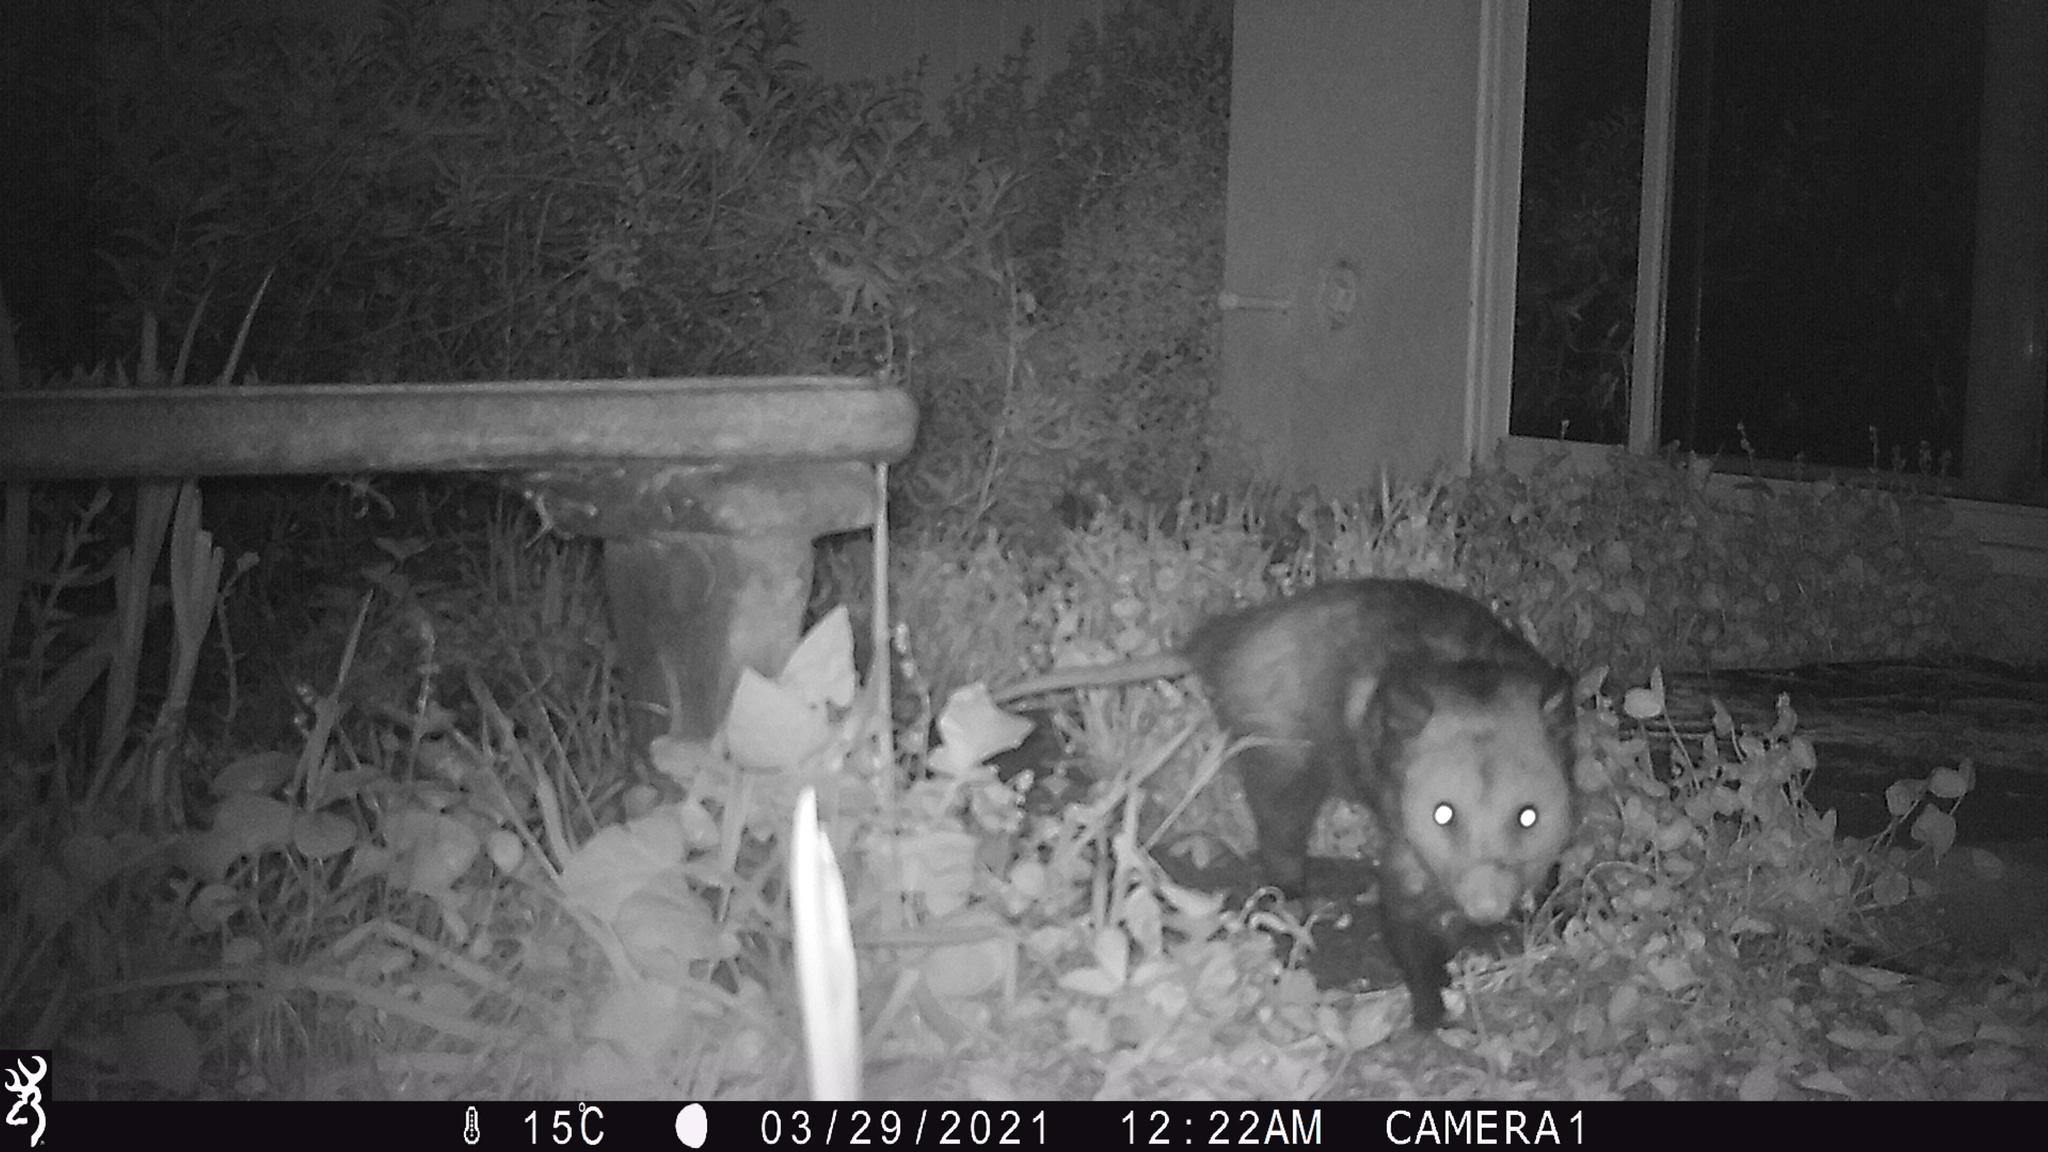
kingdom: Animalia
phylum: Chordata
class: Mammalia
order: Didelphimorphia
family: Didelphidae
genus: Didelphis
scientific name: Didelphis virginiana
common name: Virginia opossum
